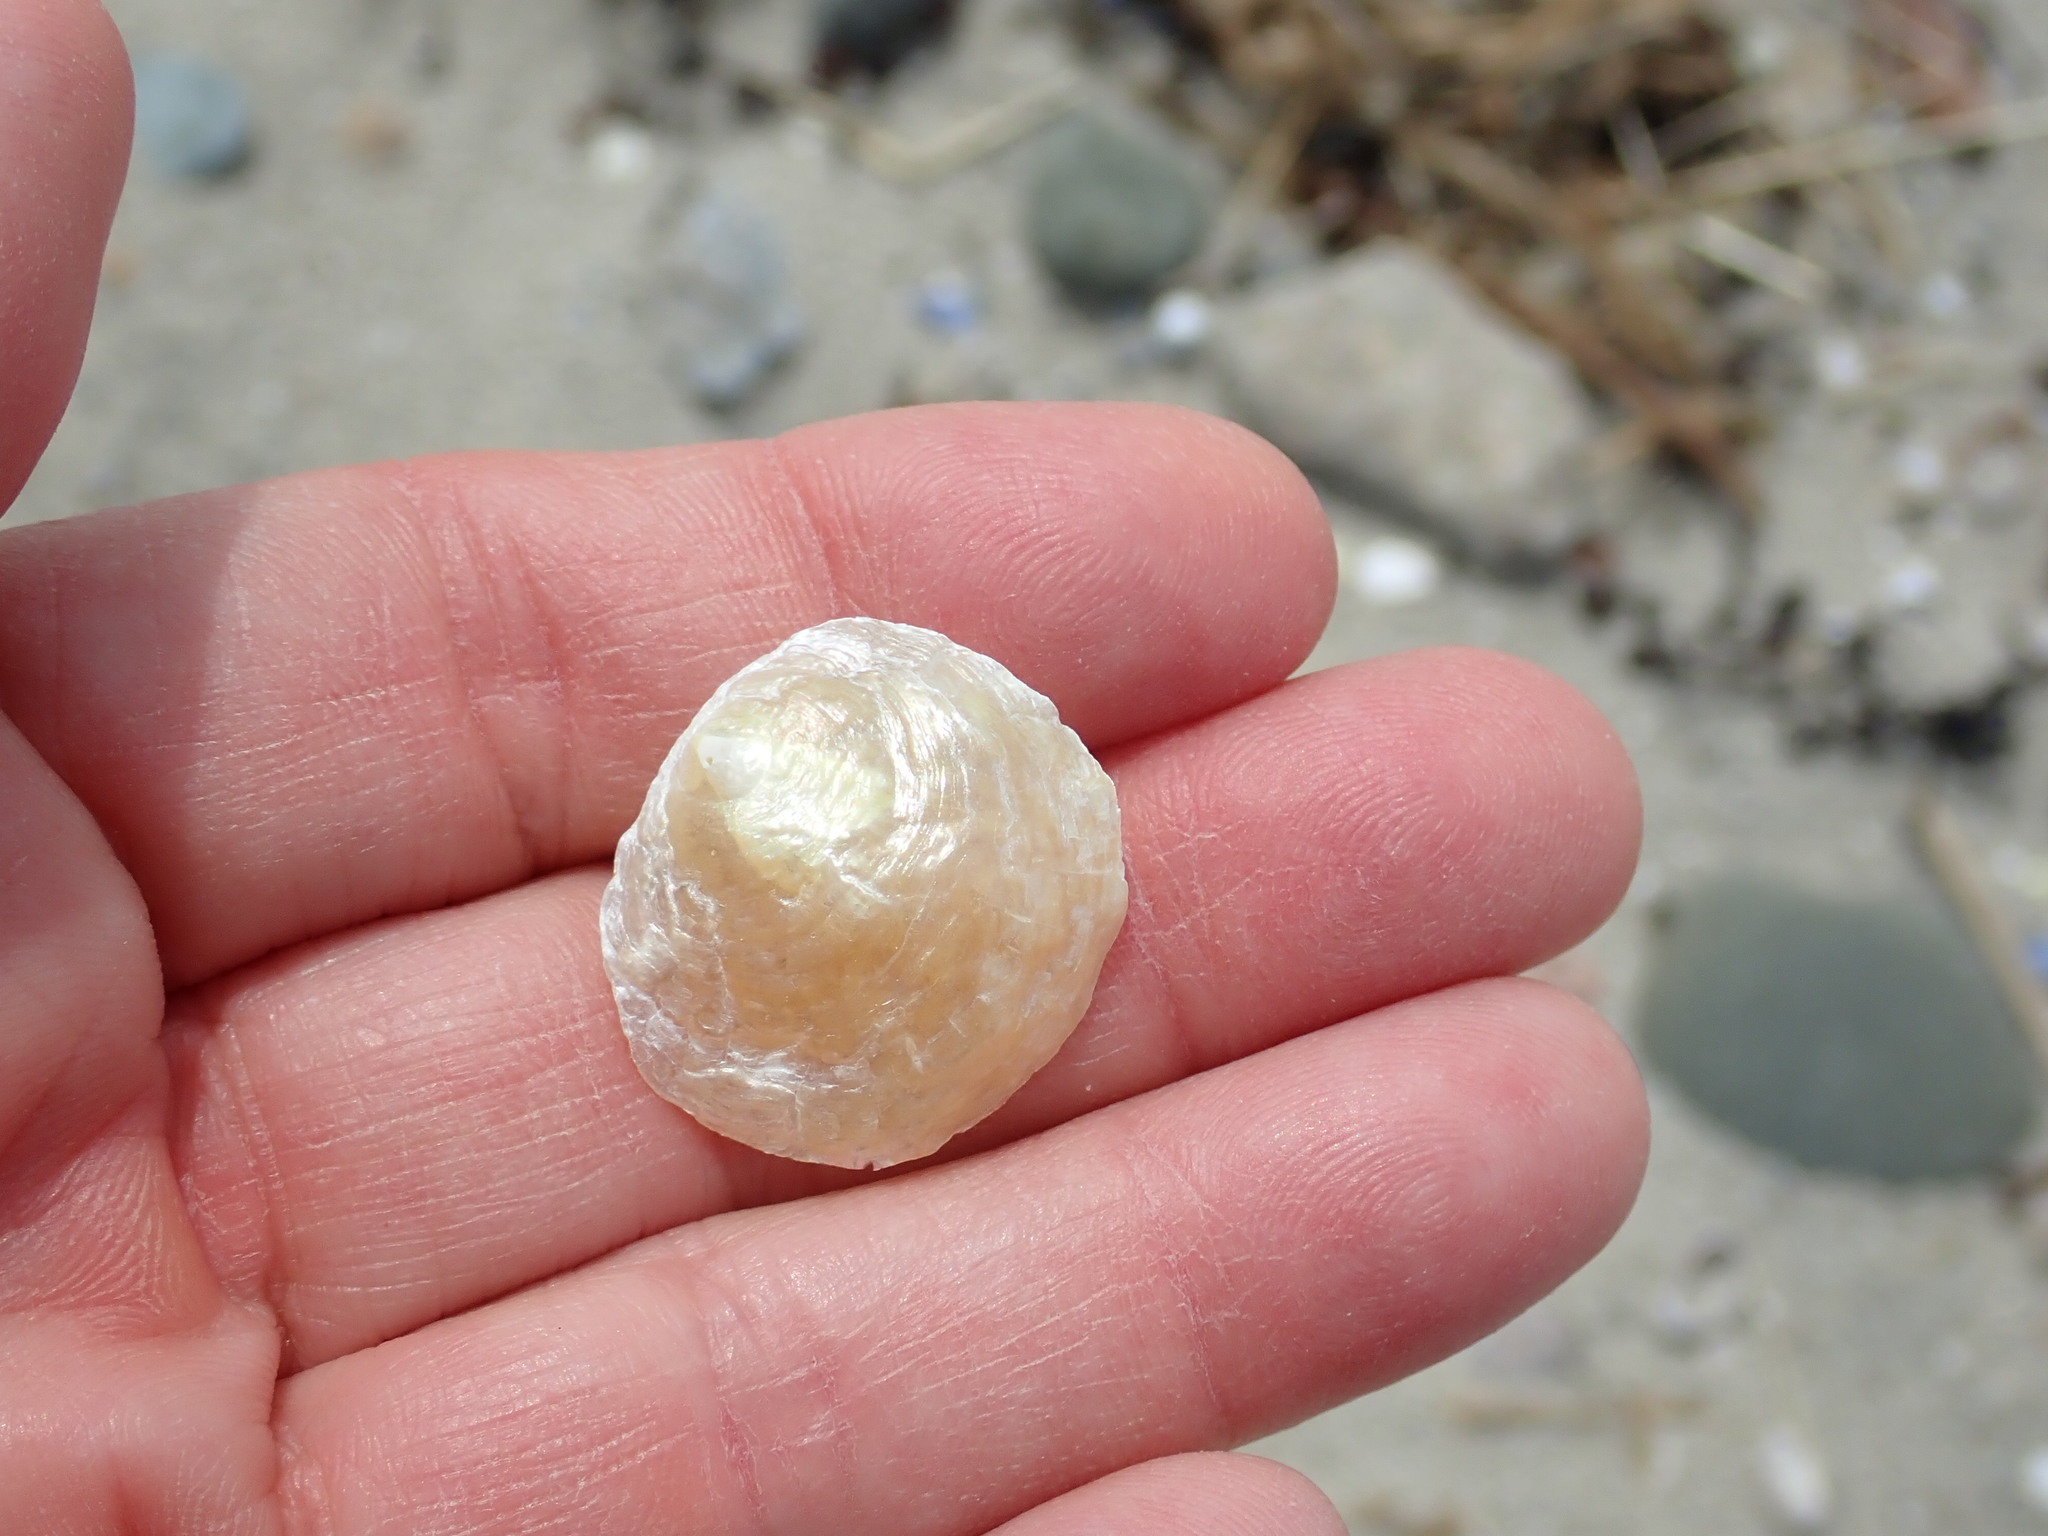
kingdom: Animalia
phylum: Mollusca
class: Bivalvia
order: Pectinida
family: Anomiidae
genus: Anomia
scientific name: Anomia simplex
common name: Common jingle shell
